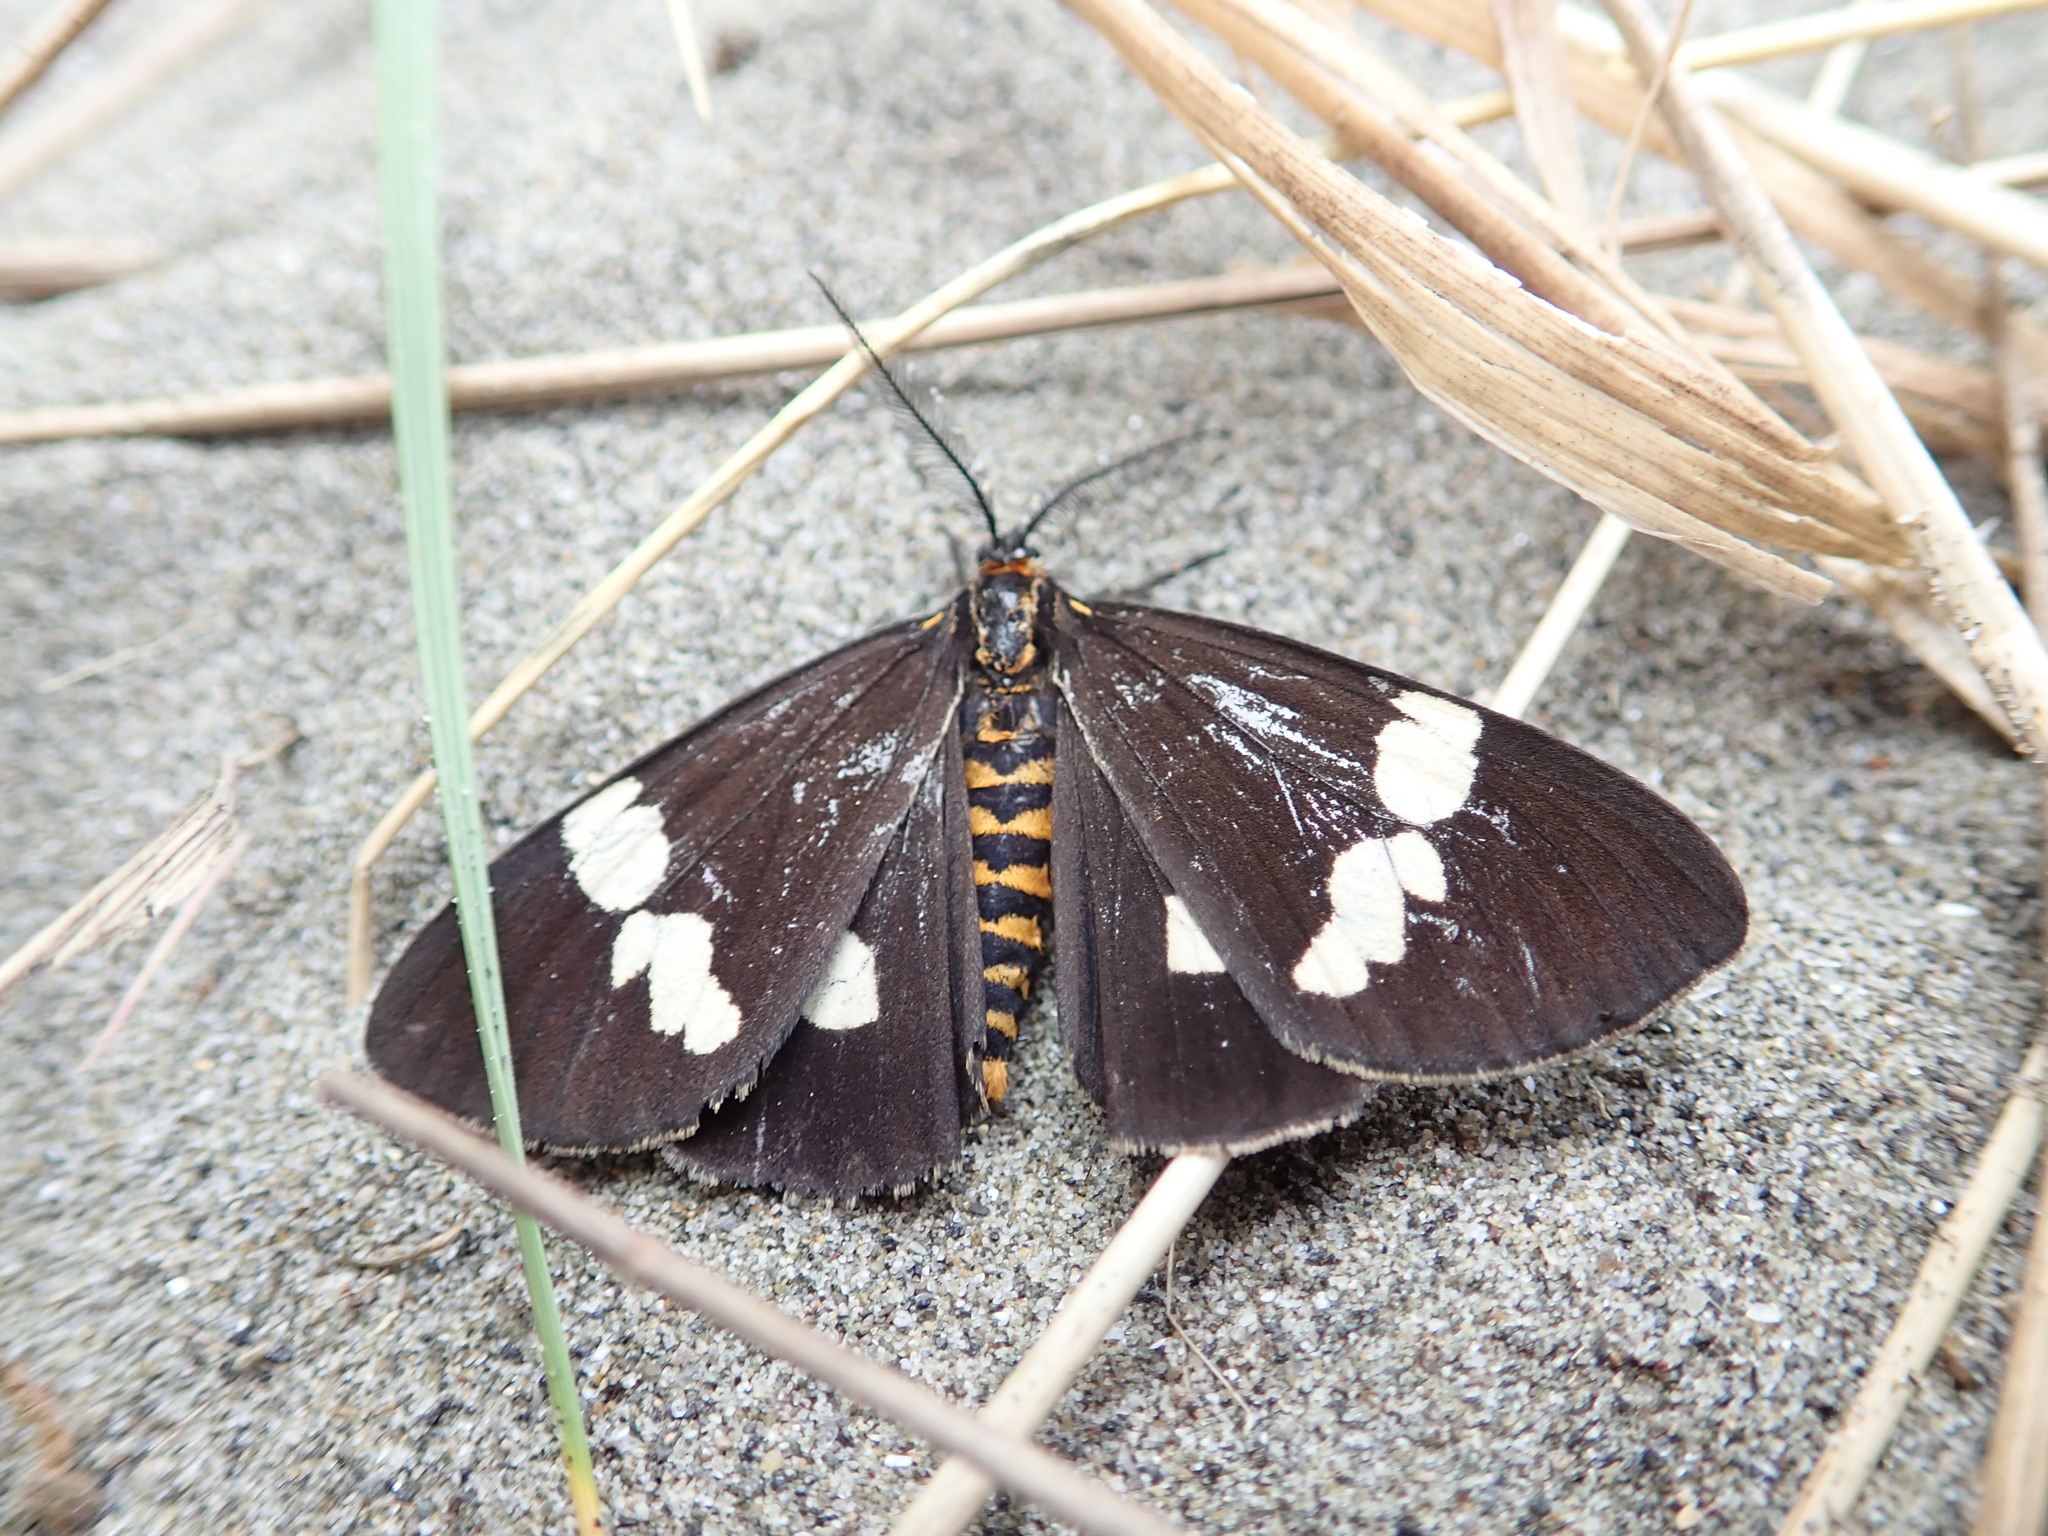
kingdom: Animalia
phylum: Arthropoda
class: Insecta
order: Lepidoptera
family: Erebidae
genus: Nyctemera
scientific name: Nyctemera amicus
